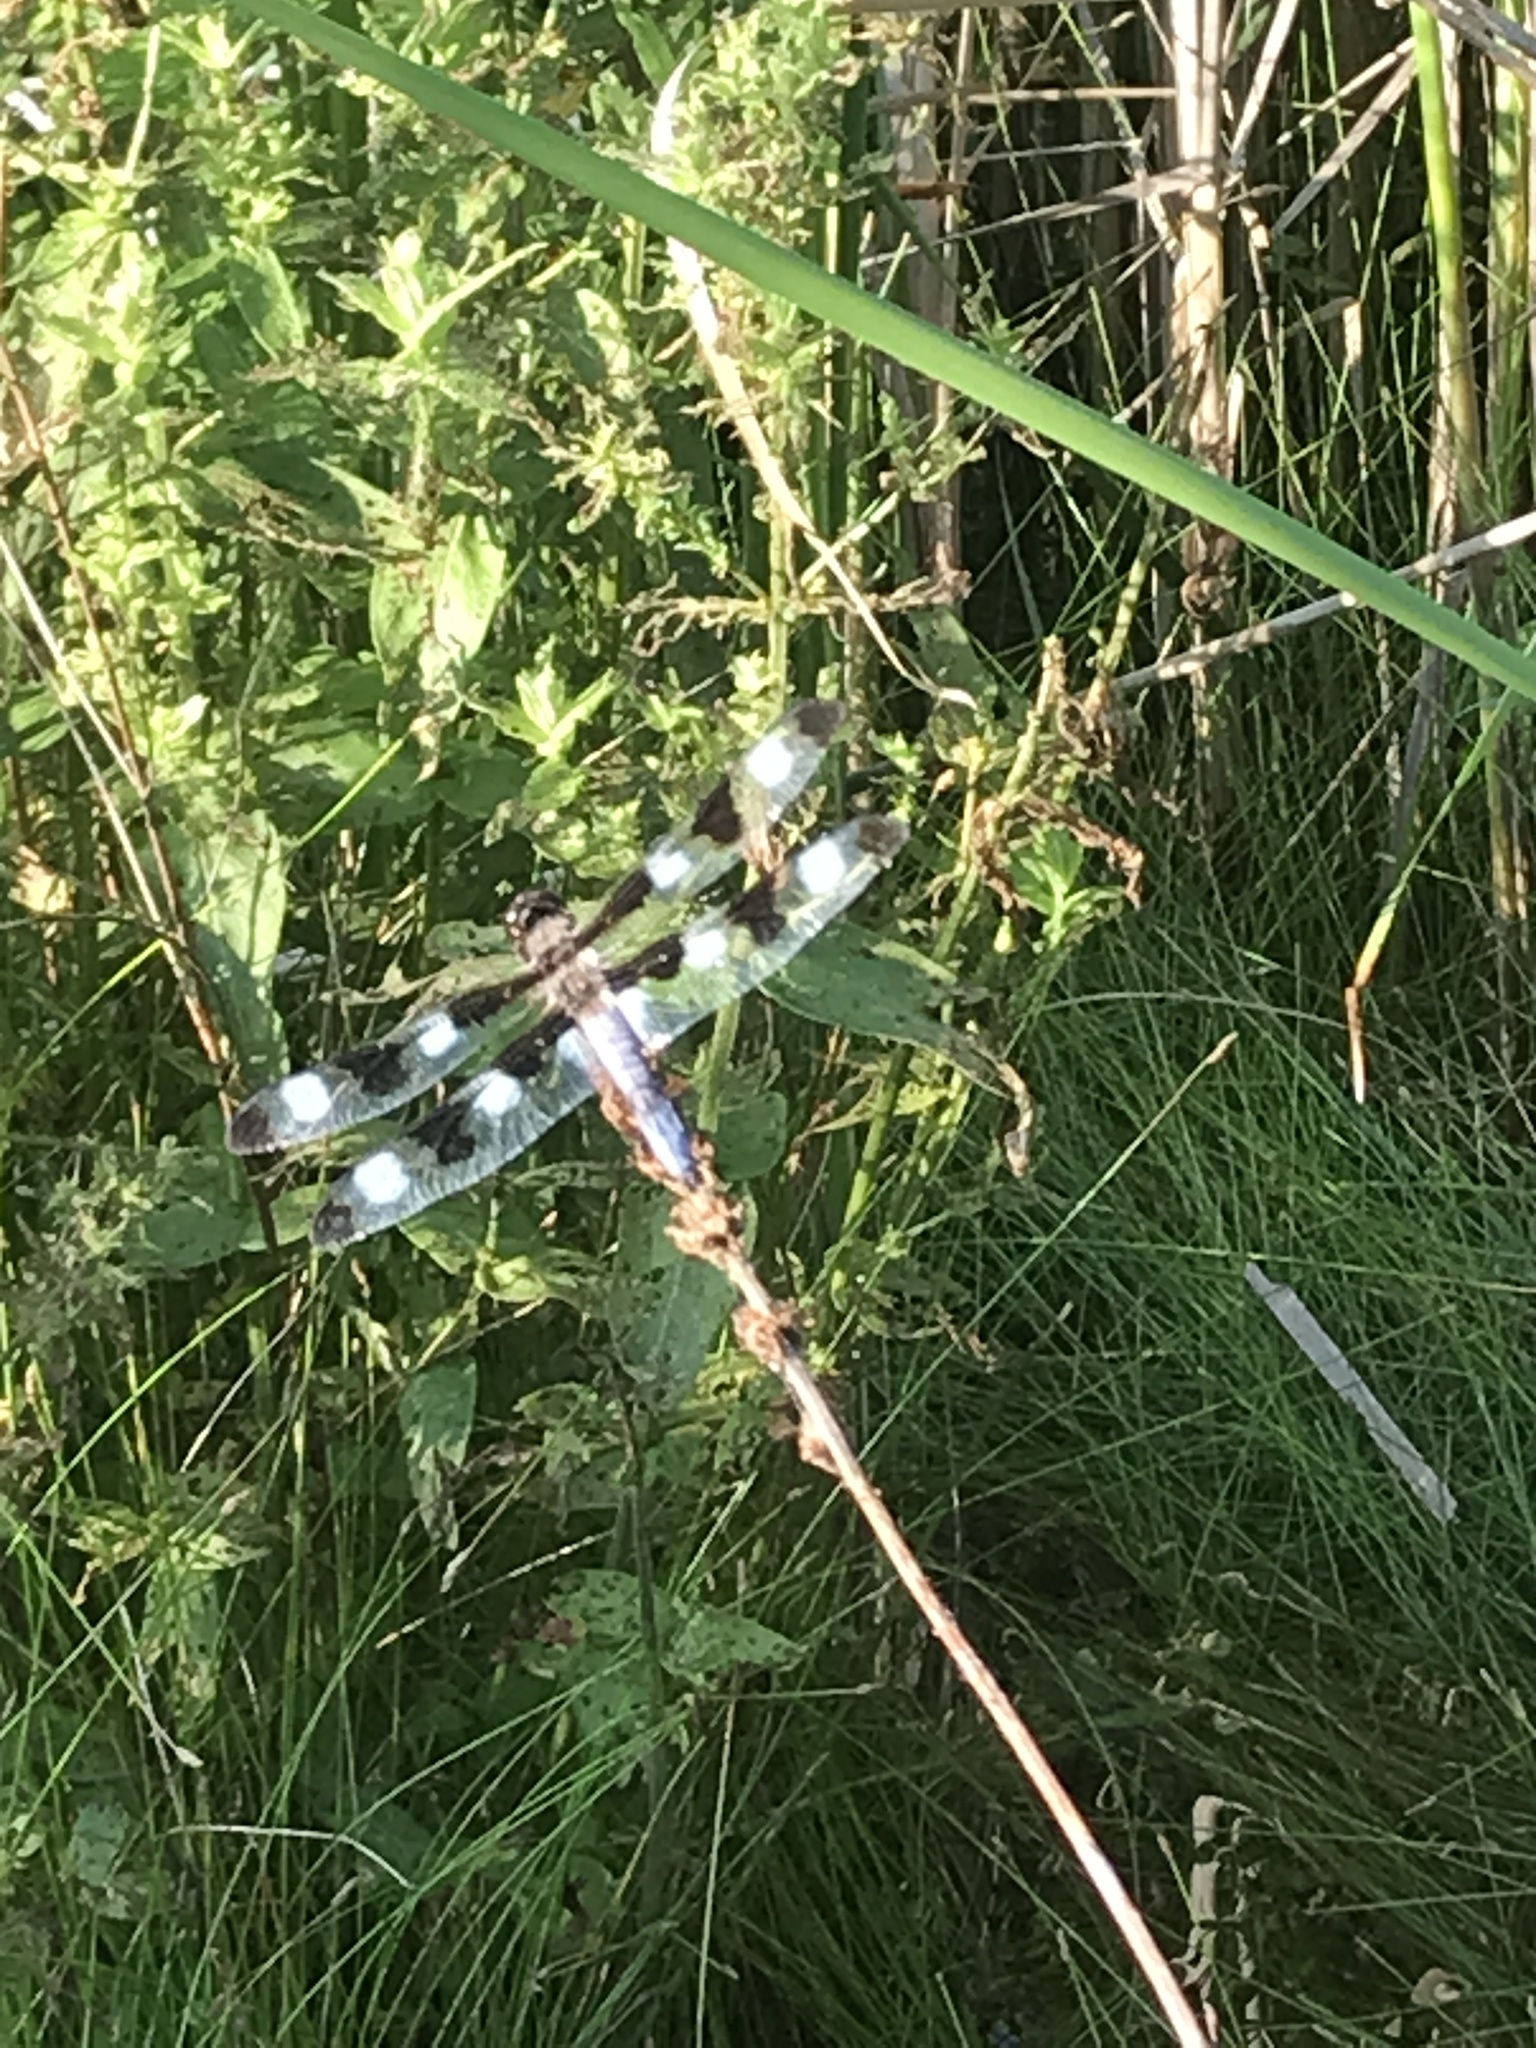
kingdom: Animalia
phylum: Arthropoda
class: Insecta
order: Odonata
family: Libellulidae
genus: Libellula
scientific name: Libellula pulchella
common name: Twelve-spotted skimmer
